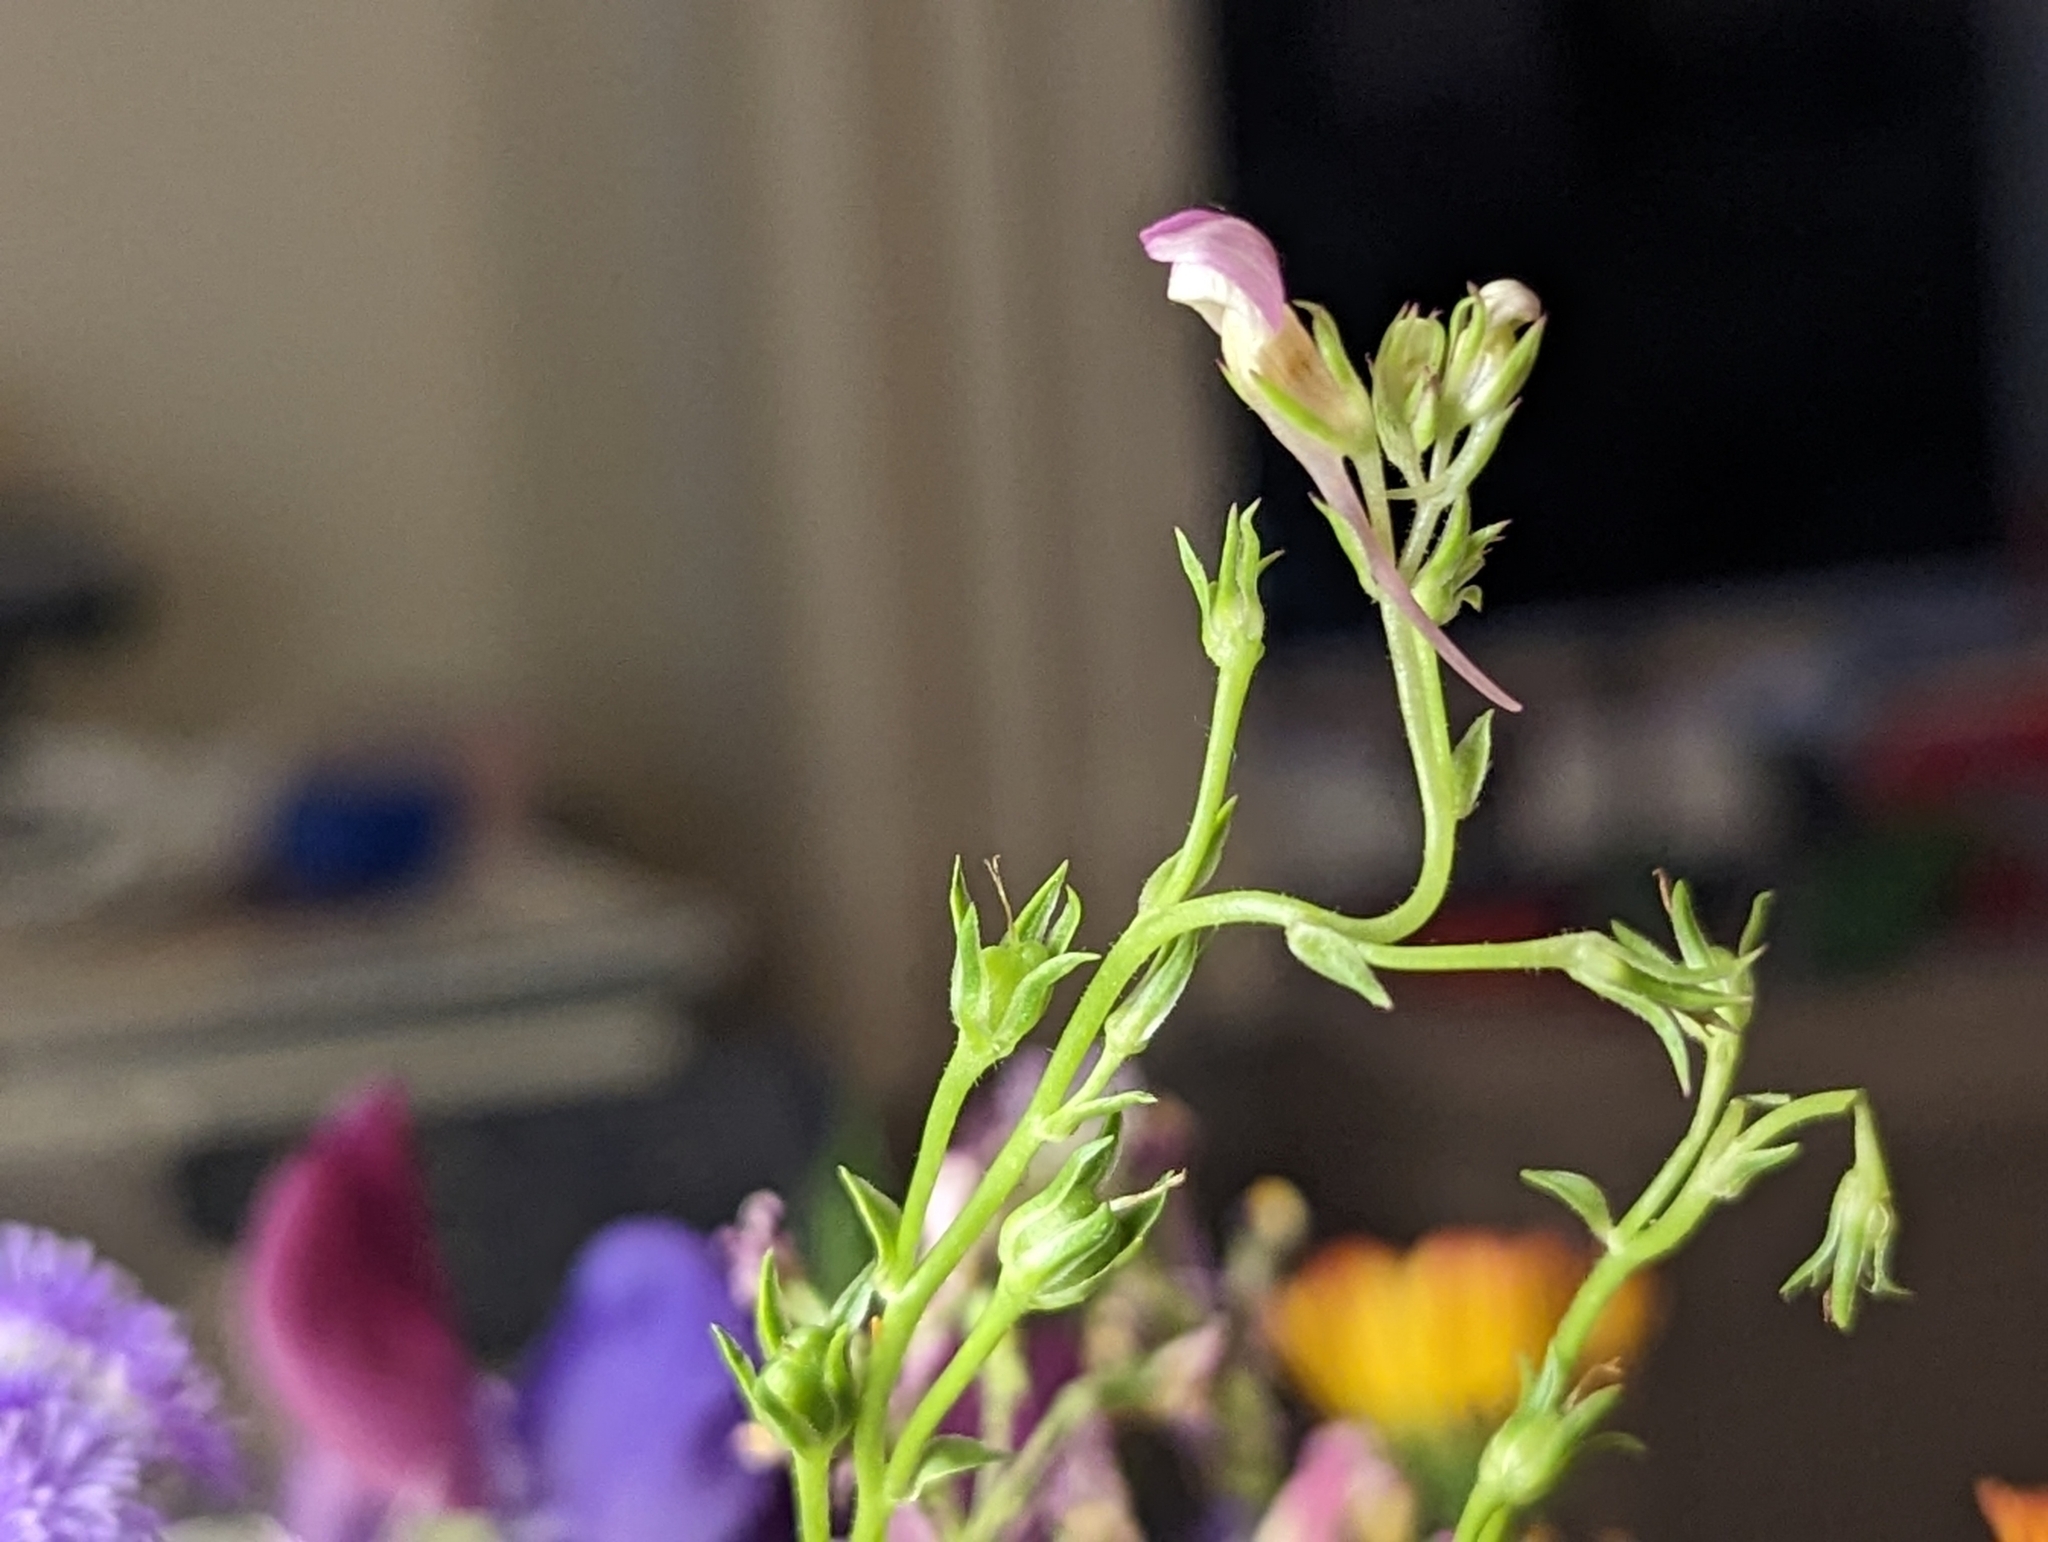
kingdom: Plantae
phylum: Tracheophyta
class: Magnoliopsida
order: Lamiales
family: Plantaginaceae
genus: Chaenorhinum
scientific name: Chaenorhinum minus
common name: Dwarf snapdragon
